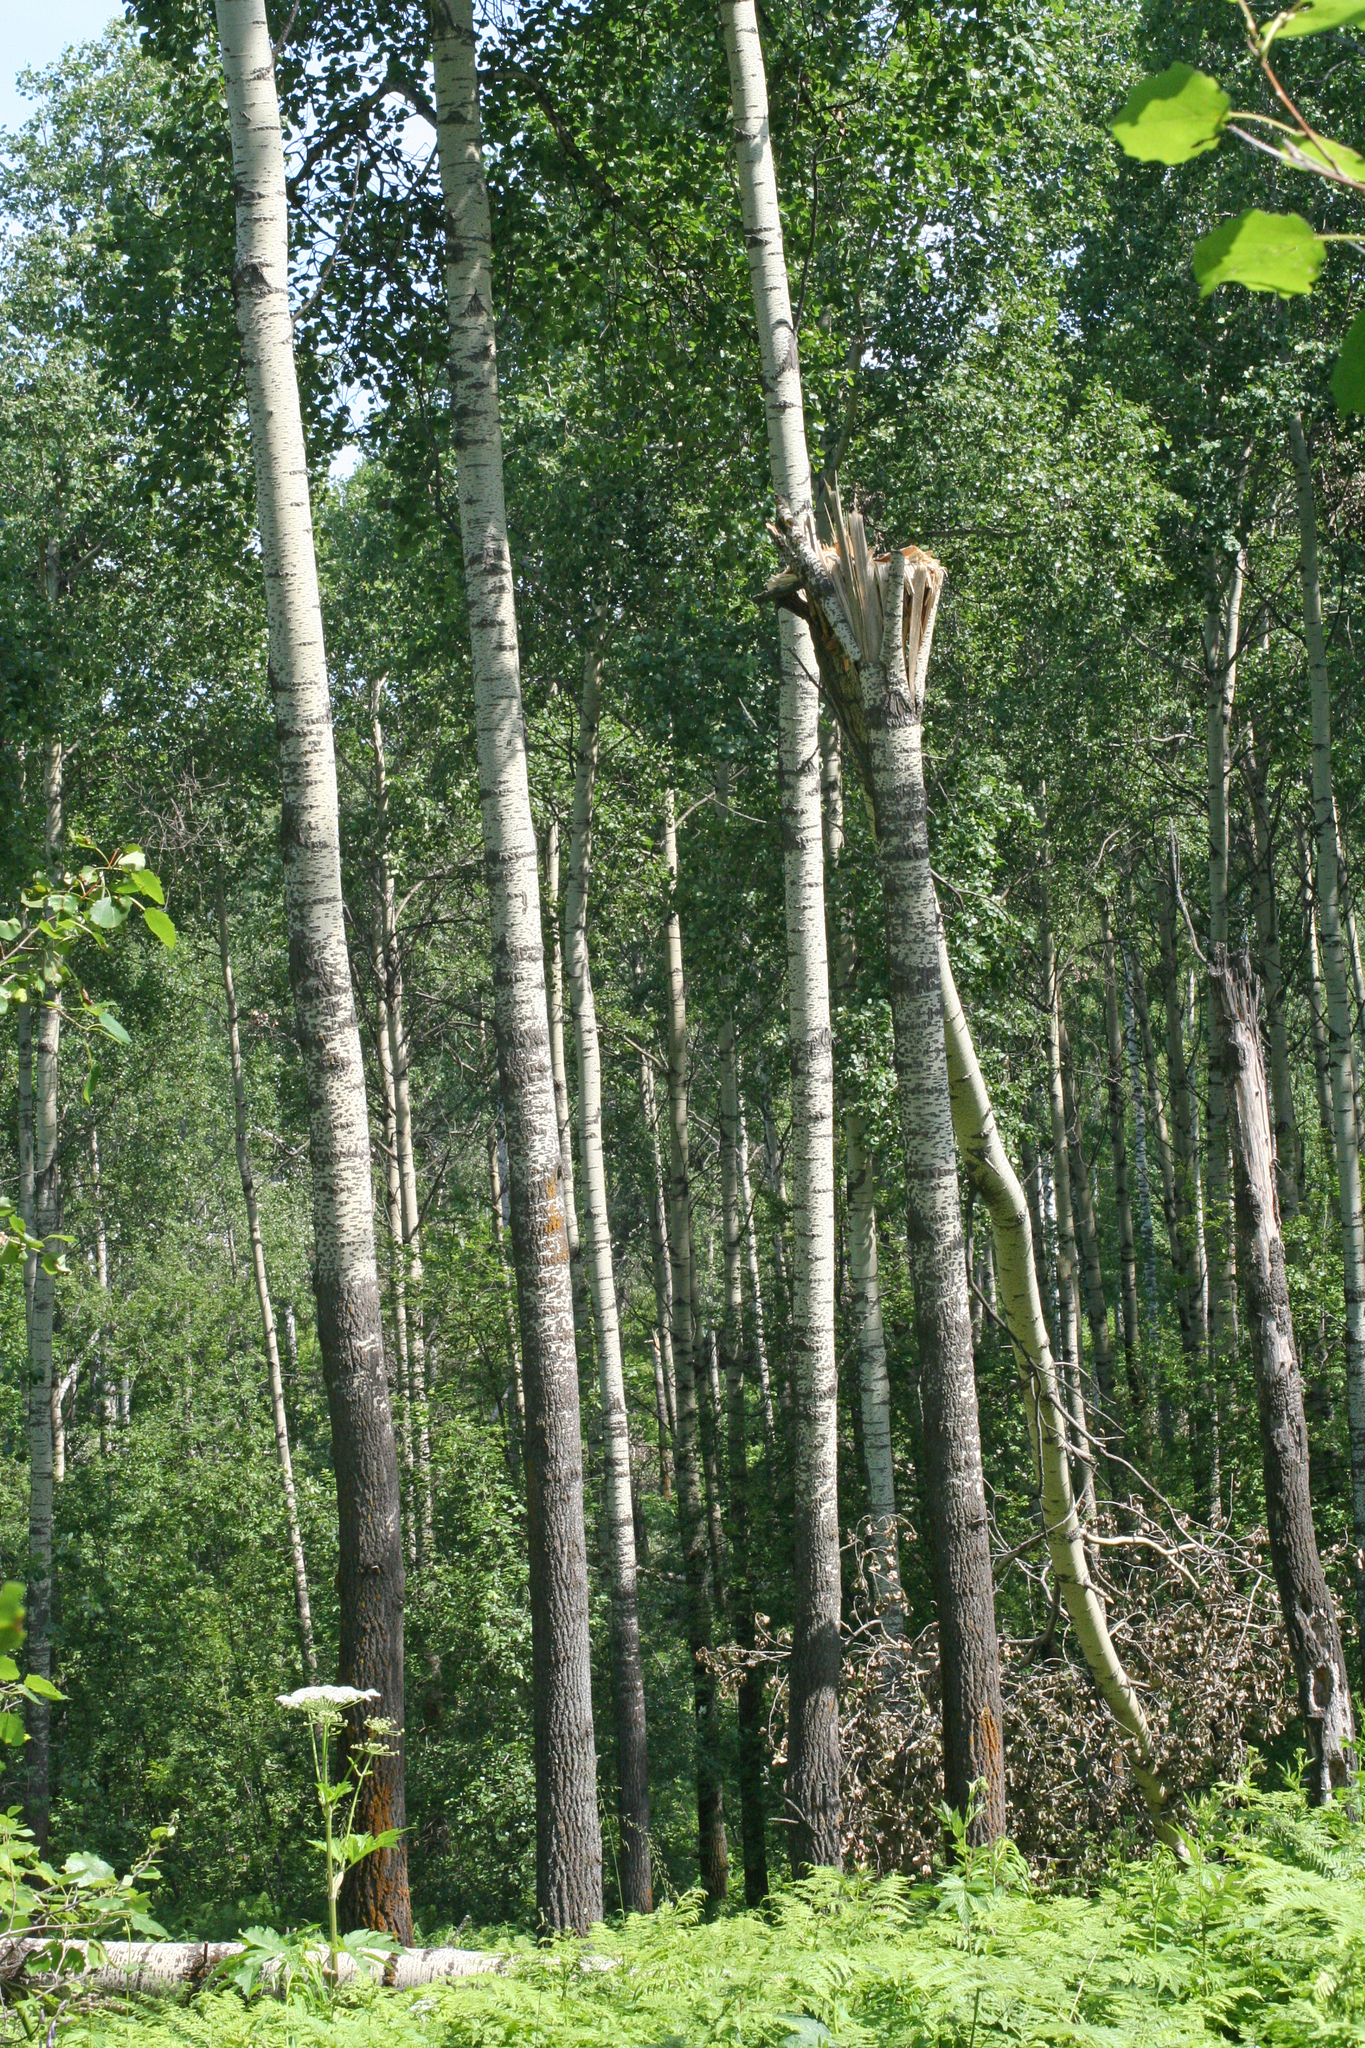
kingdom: Plantae
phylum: Tracheophyta
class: Magnoliopsida
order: Malpighiales
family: Salicaceae
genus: Populus
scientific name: Populus tremula
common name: European aspen
